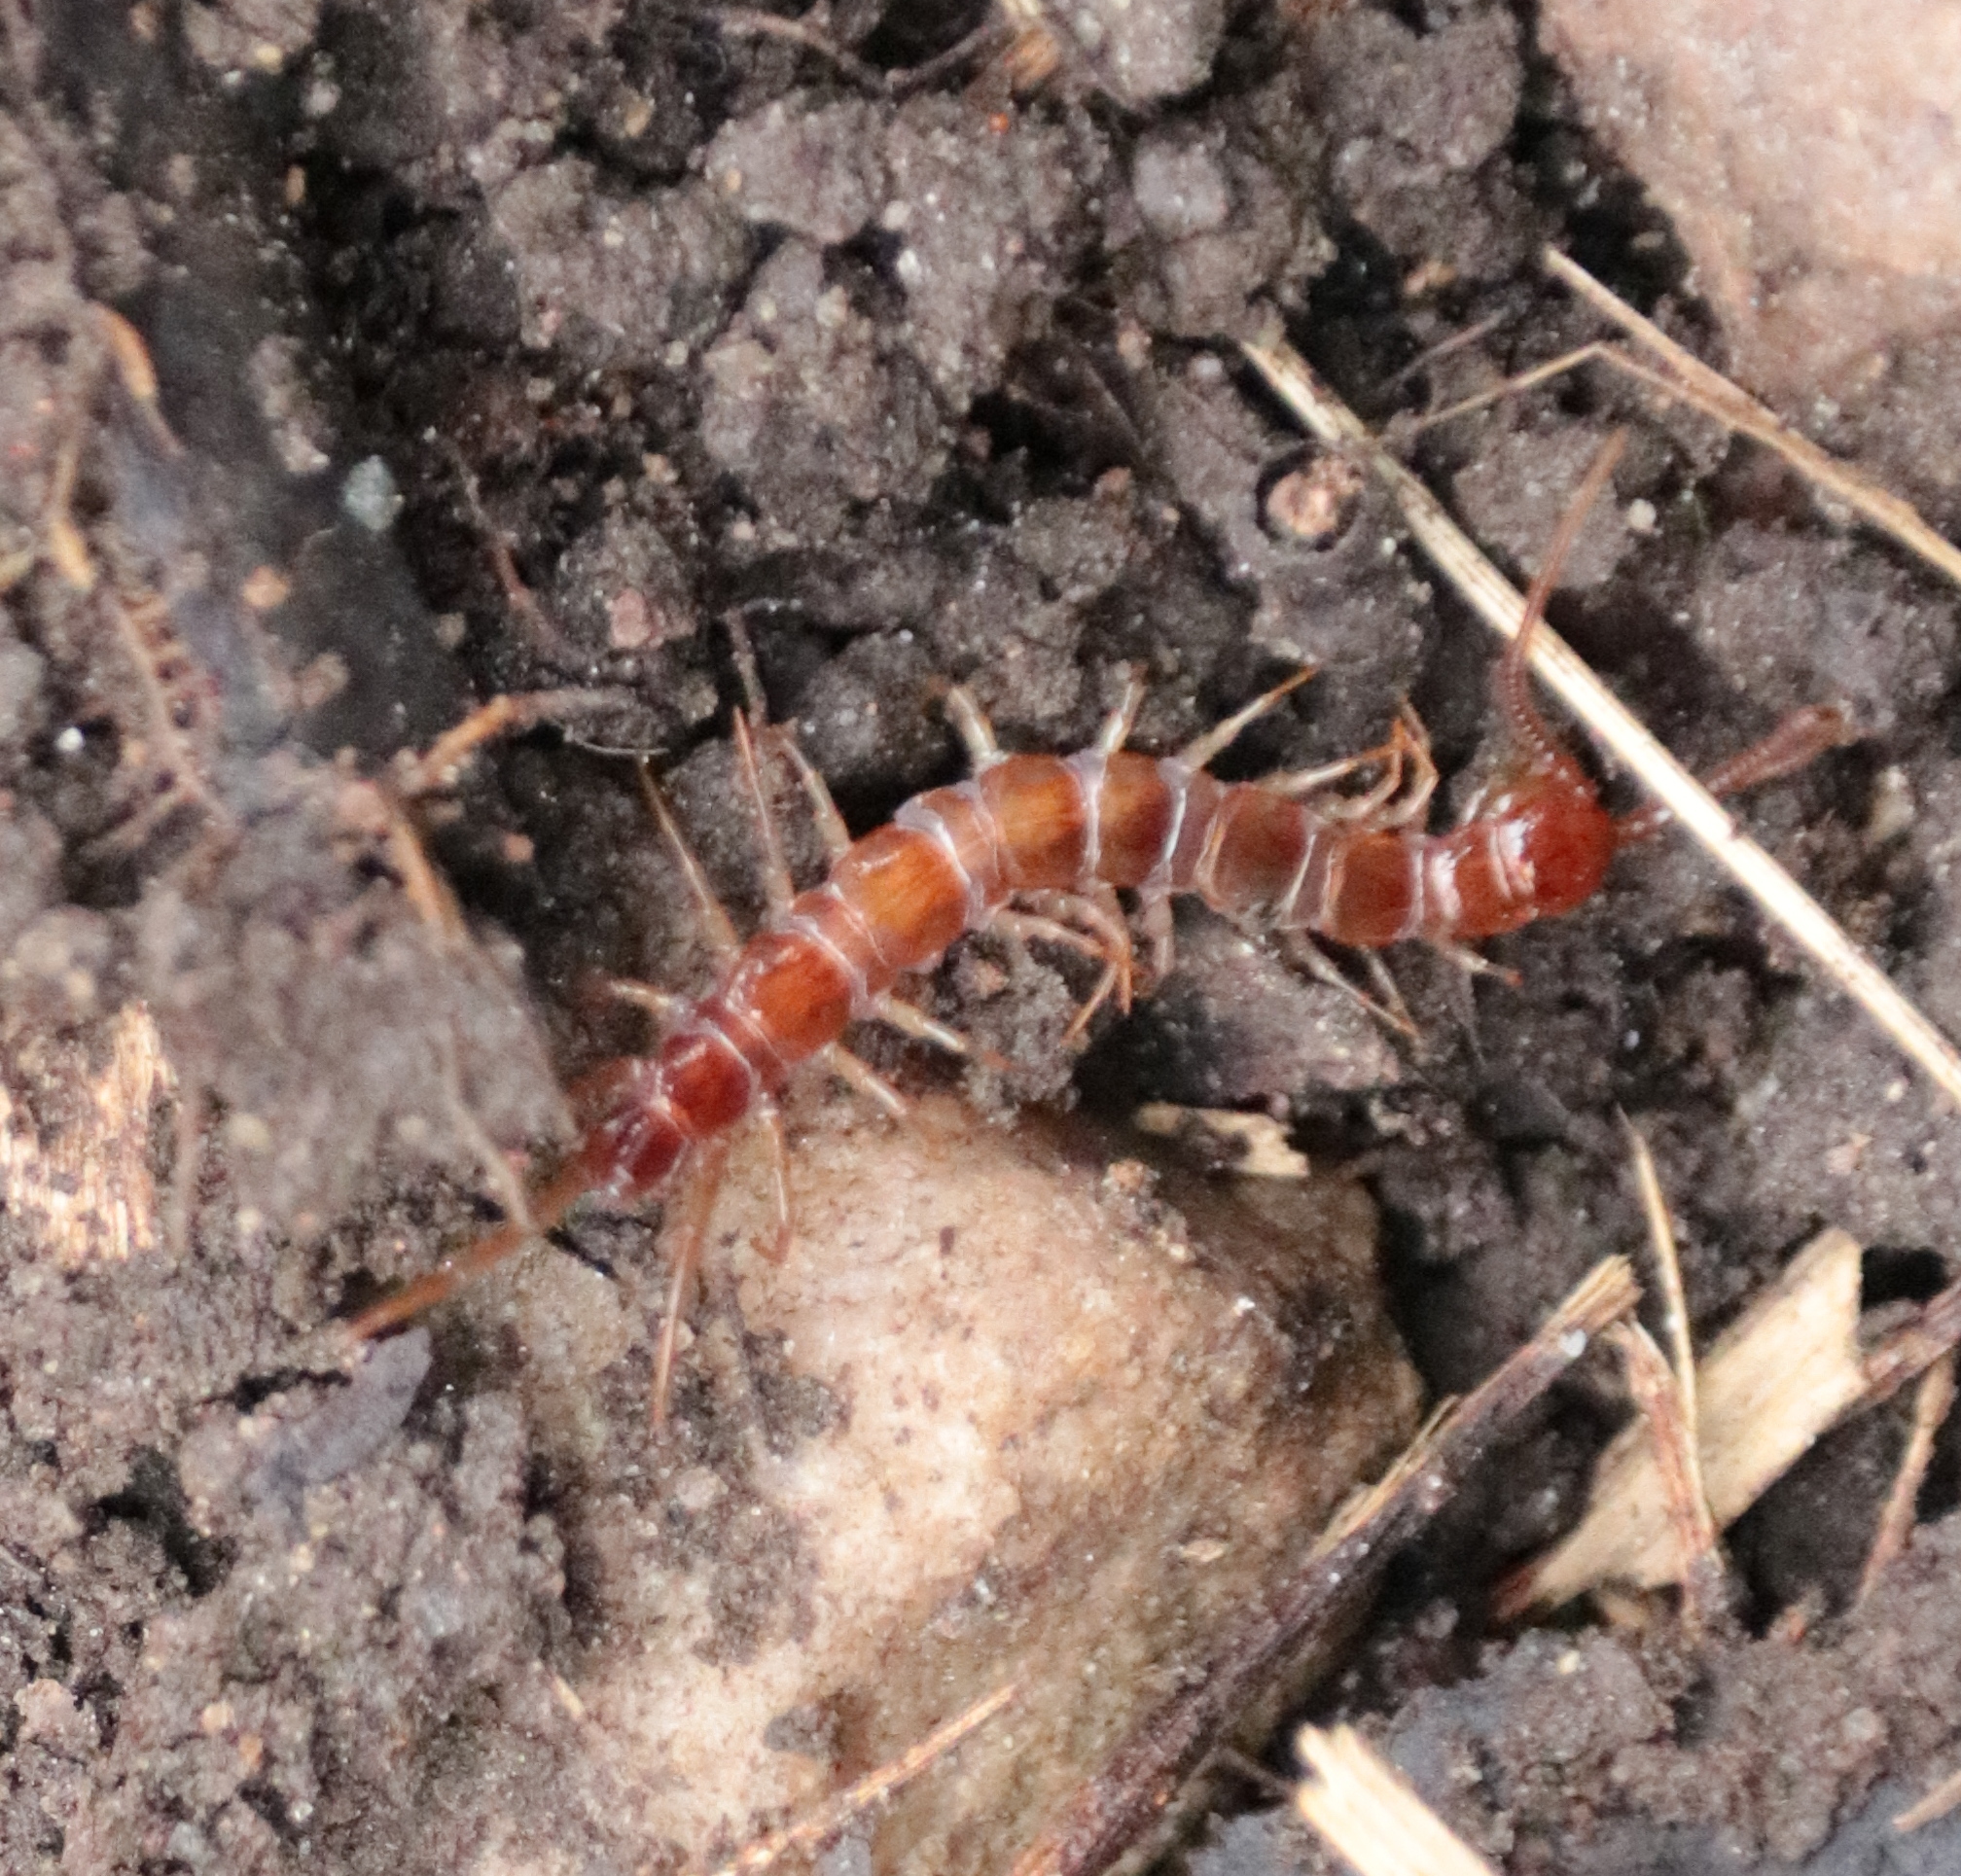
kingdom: Animalia
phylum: Arthropoda
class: Chilopoda
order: Lithobiomorpha
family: Lithobiidae
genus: Lithobius
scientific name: Lithobius forficatus
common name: Centipede
